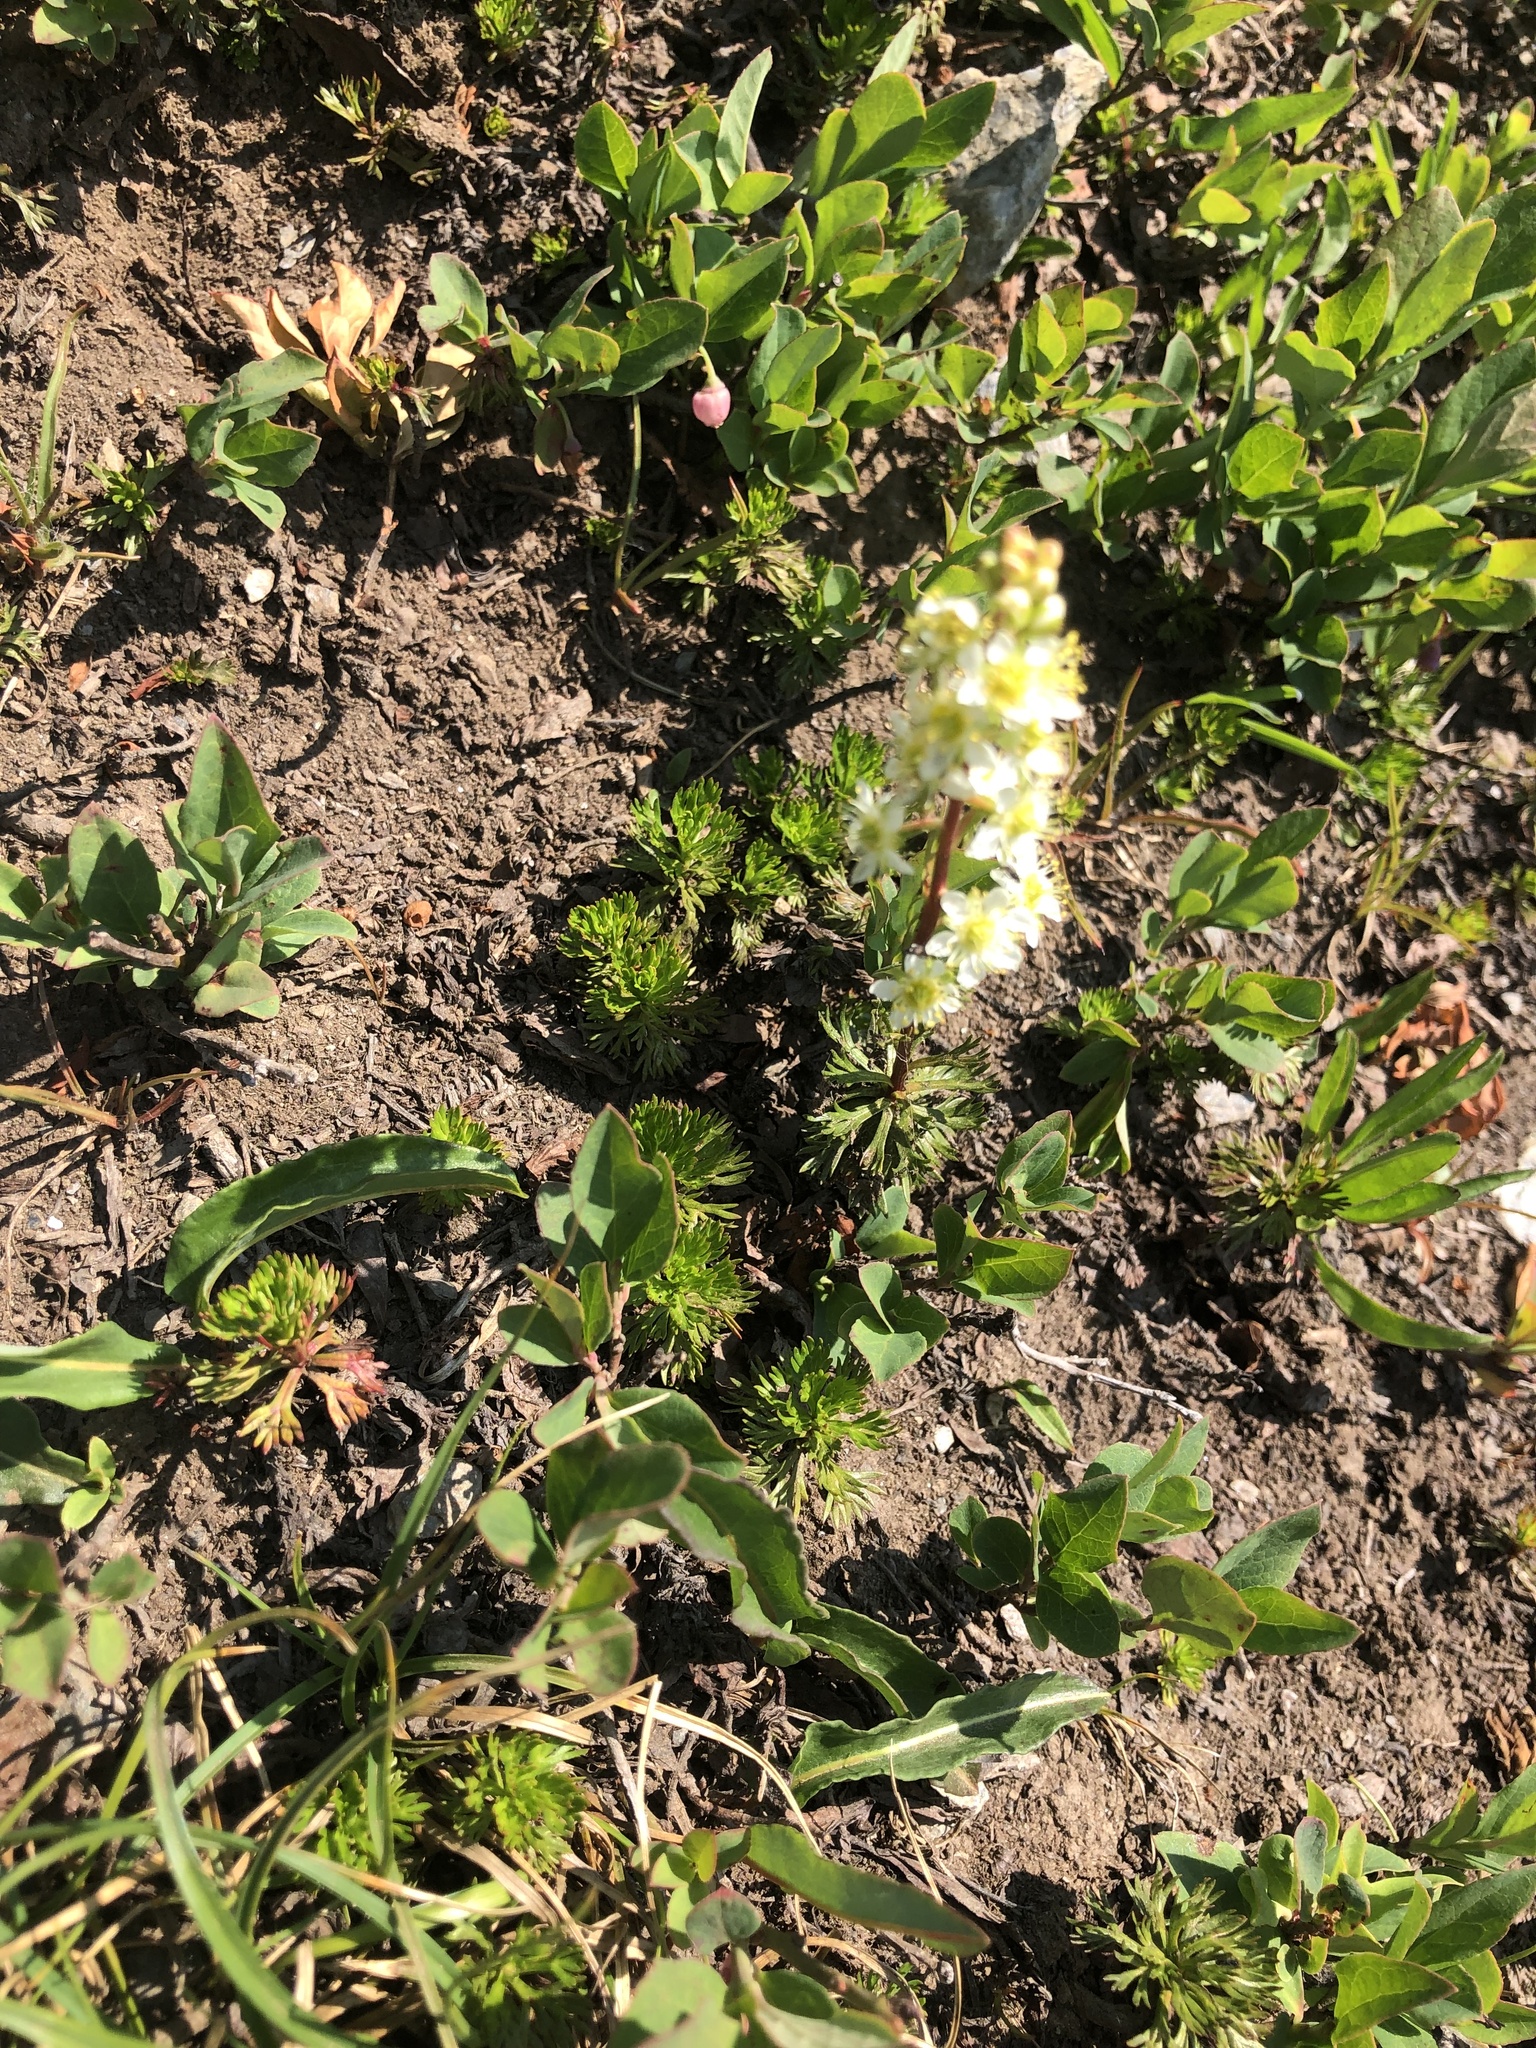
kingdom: Plantae
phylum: Tracheophyta
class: Magnoliopsida
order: Rosales
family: Rosaceae
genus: Luetkea
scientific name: Luetkea pectinata
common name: Partridgefoot
